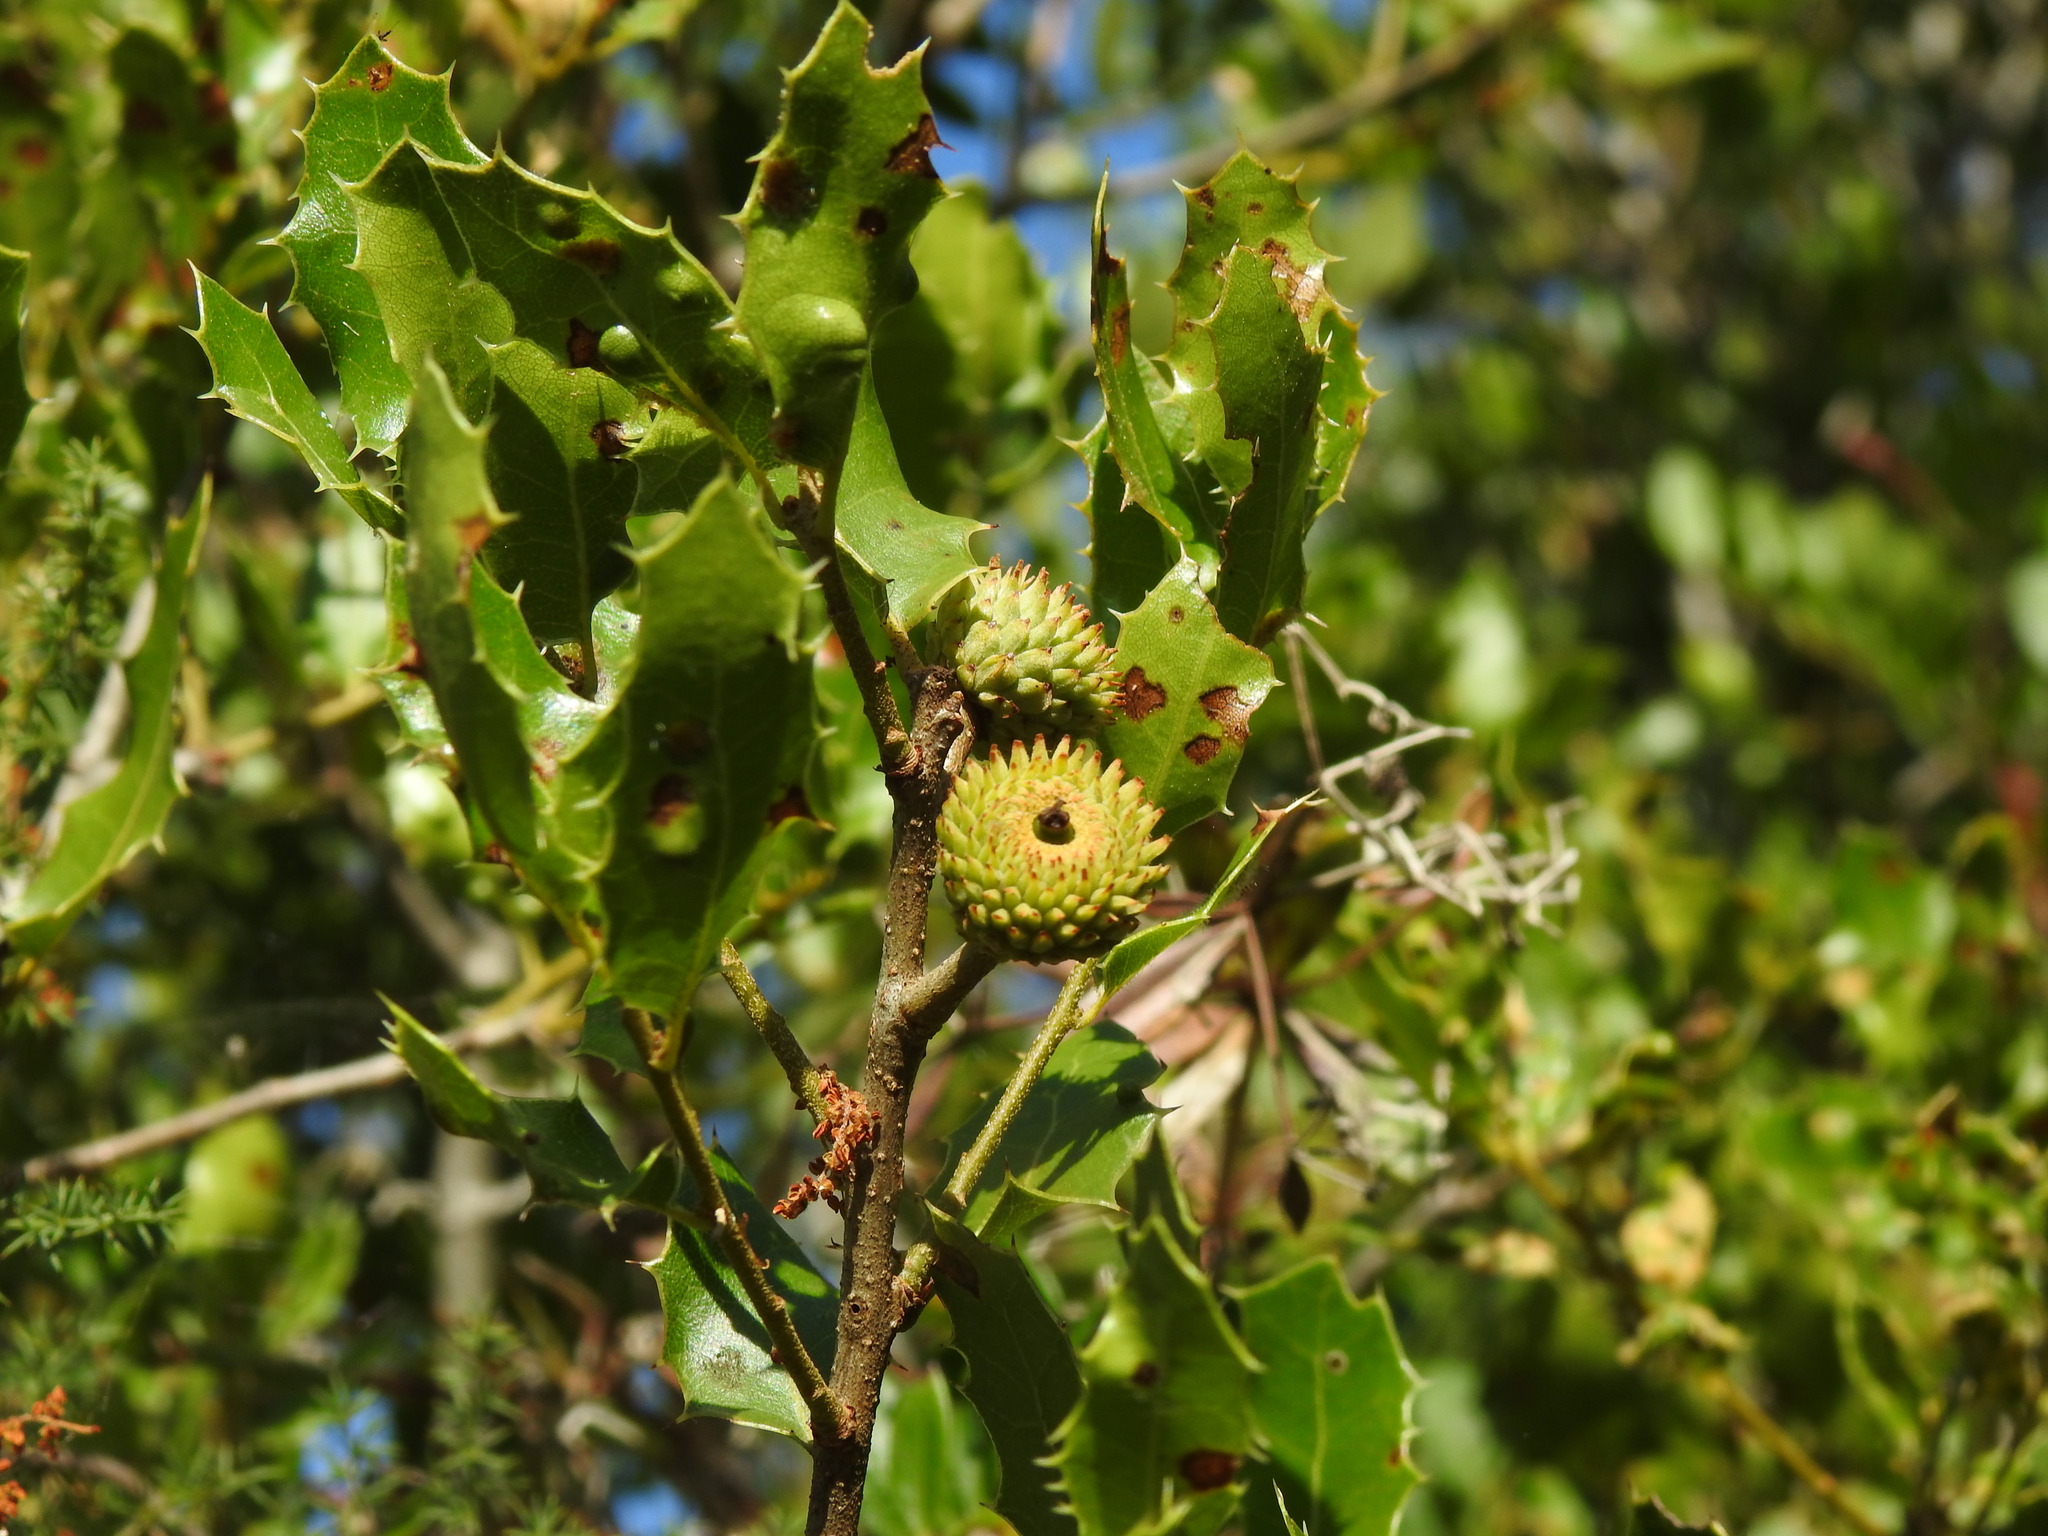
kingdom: Plantae
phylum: Tracheophyta
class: Magnoliopsida
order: Fagales
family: Fagaceae
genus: Quercus
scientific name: Quercus coccifera
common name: Kermes oak
